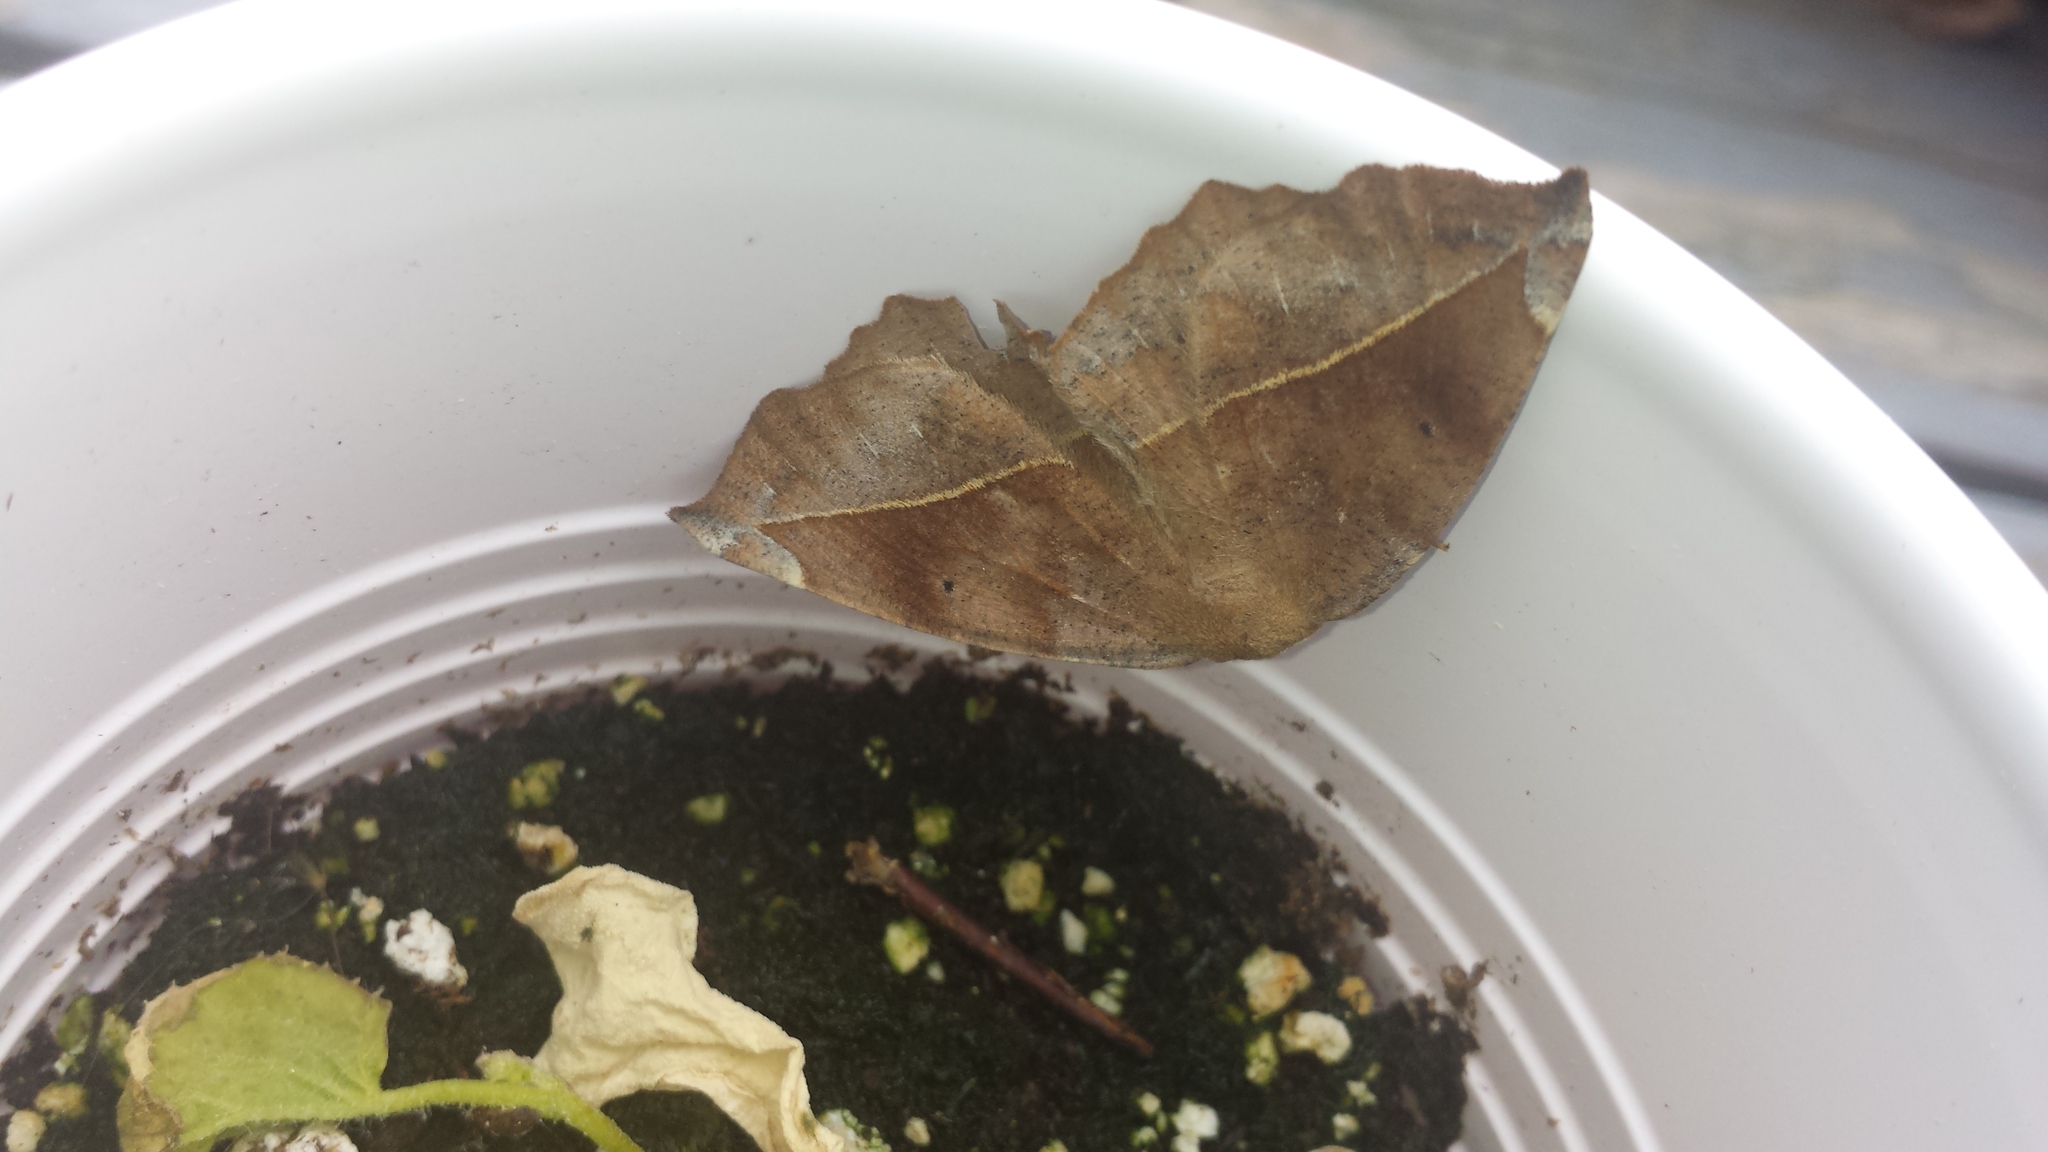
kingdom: Animalia
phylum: Arthropoda
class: Insecta
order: Lepidoptera
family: Geometridae
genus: Eutrapela
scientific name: Eutrapela clemataria
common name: Curved-toothed geometer
